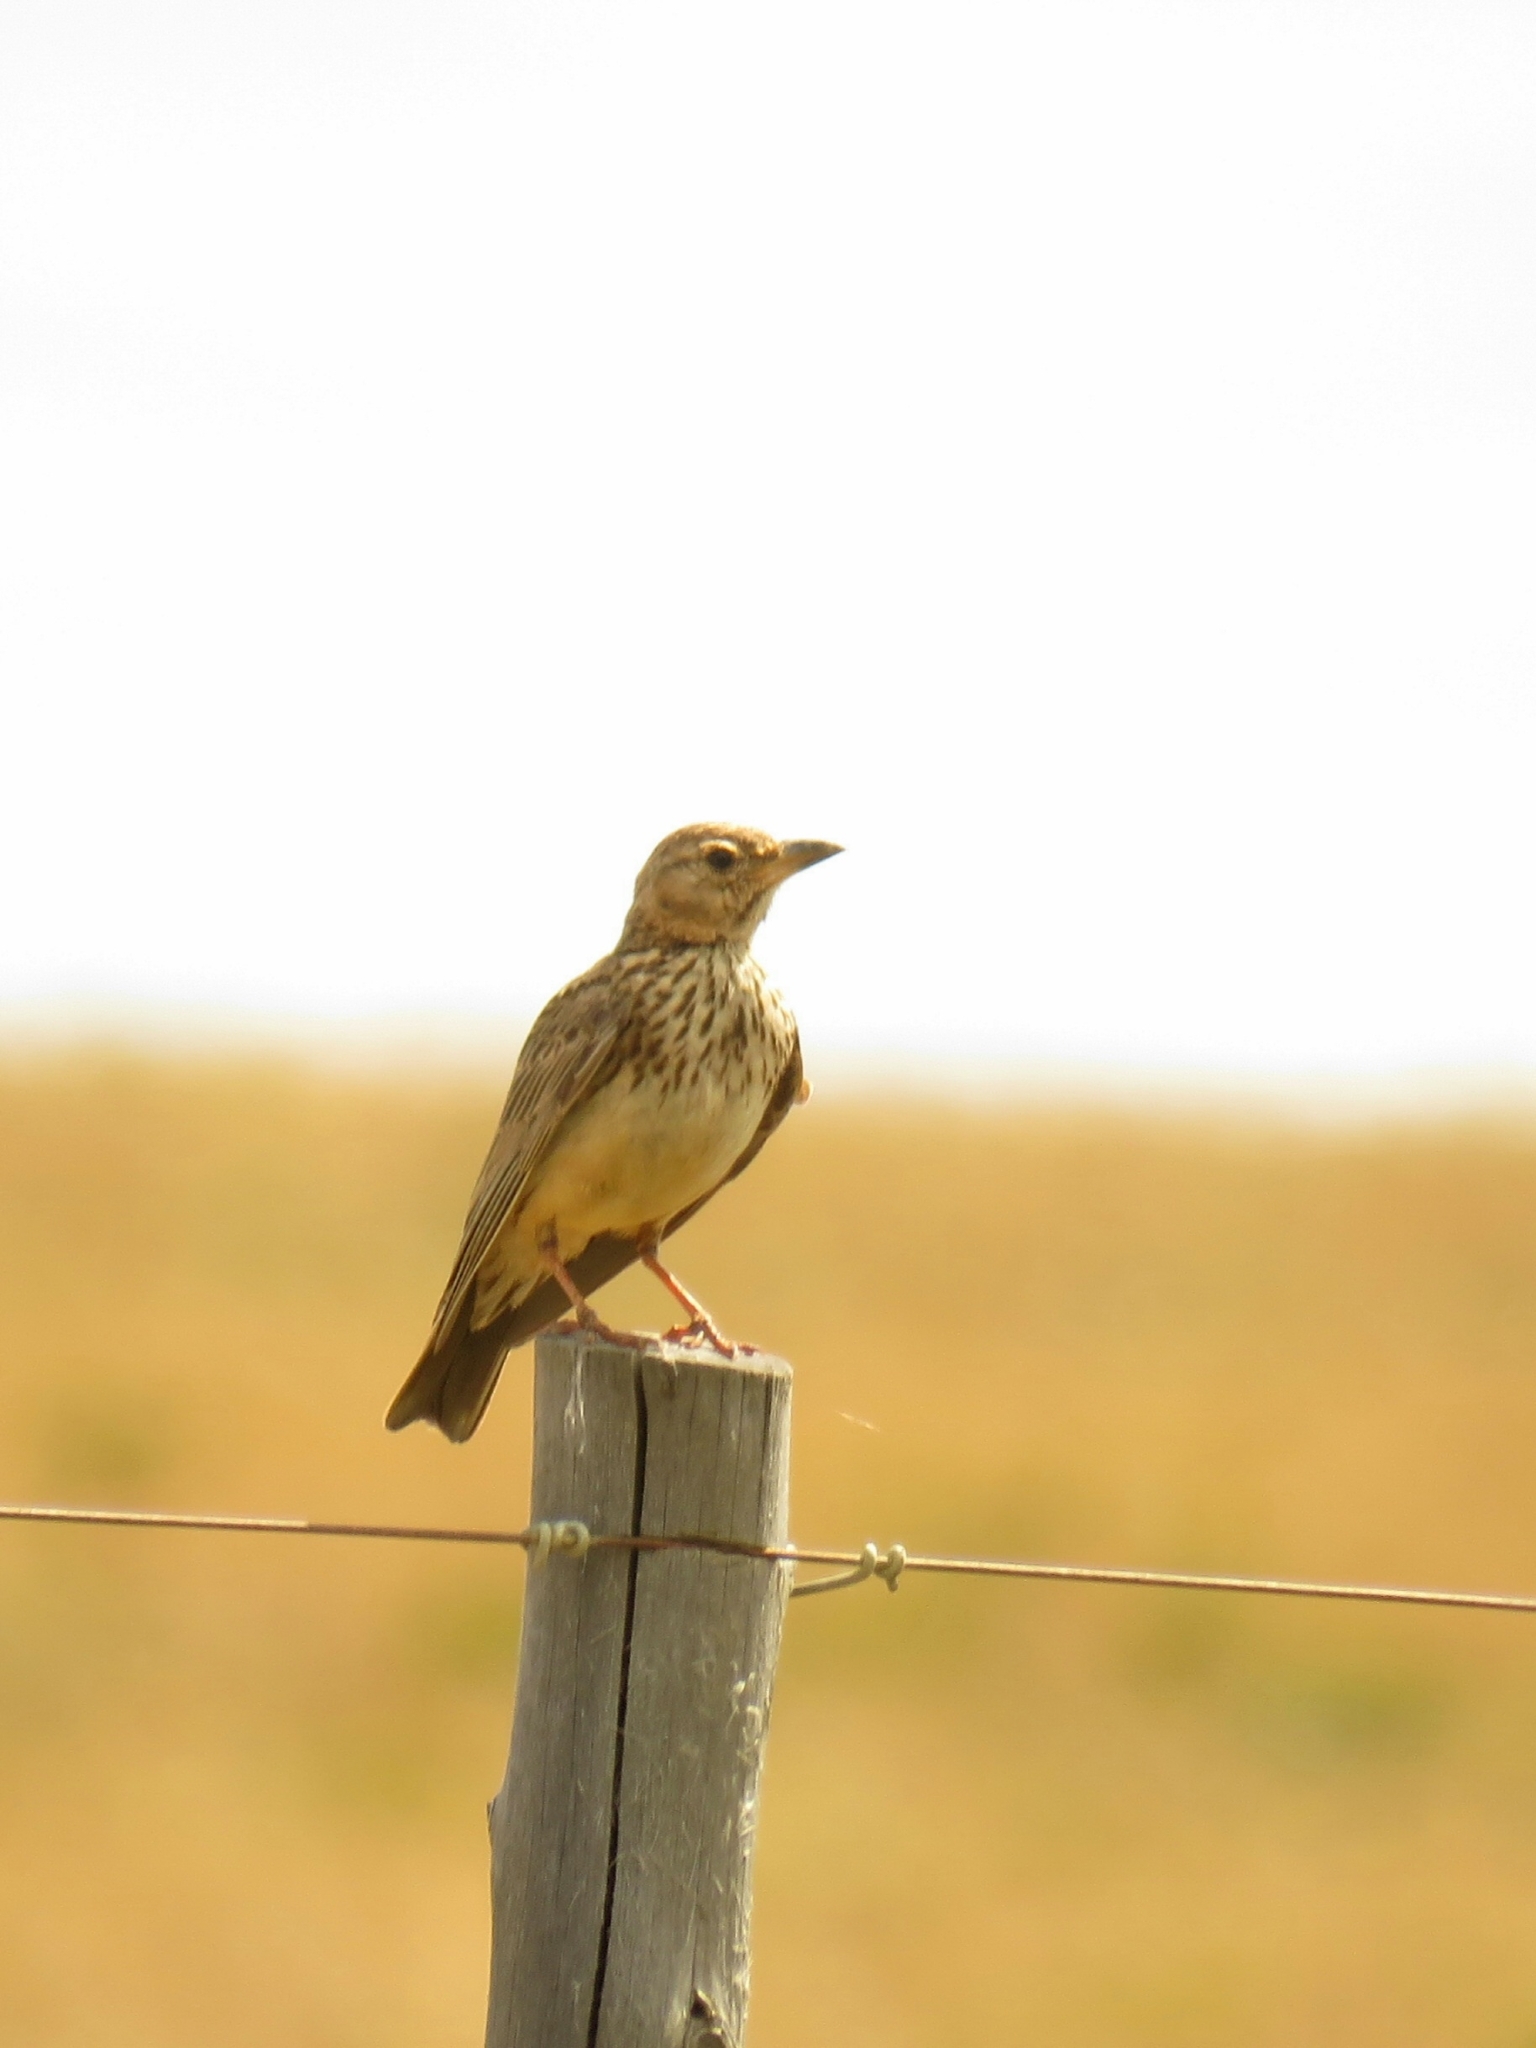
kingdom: Animalia
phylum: Chordata
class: Aves
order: Passeriformes
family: Alaudidae
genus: Galerida
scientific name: Galerida magnirostris
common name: Large-billed lark
